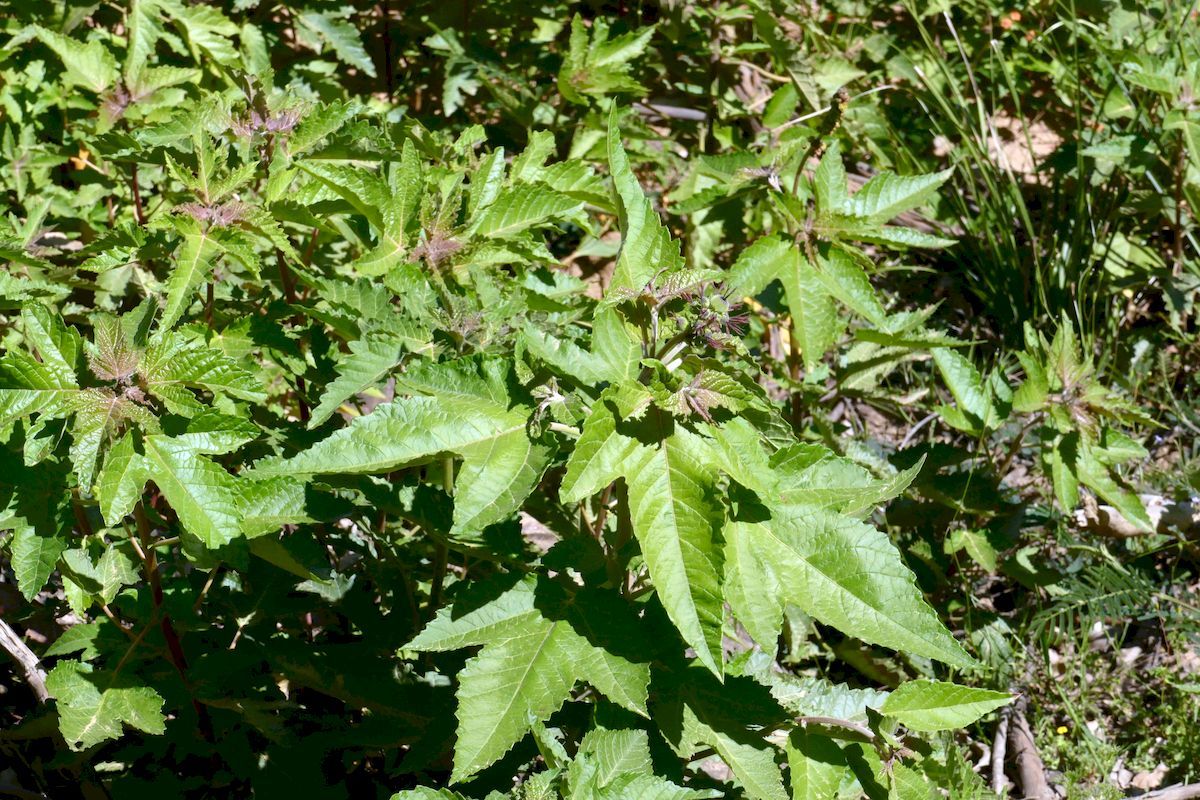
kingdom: Plantae
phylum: Tracheophyta
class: Magnoliopsida
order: Malpighiales
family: Euphorbiaceae
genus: Adriana
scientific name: Adriana tomentosa
